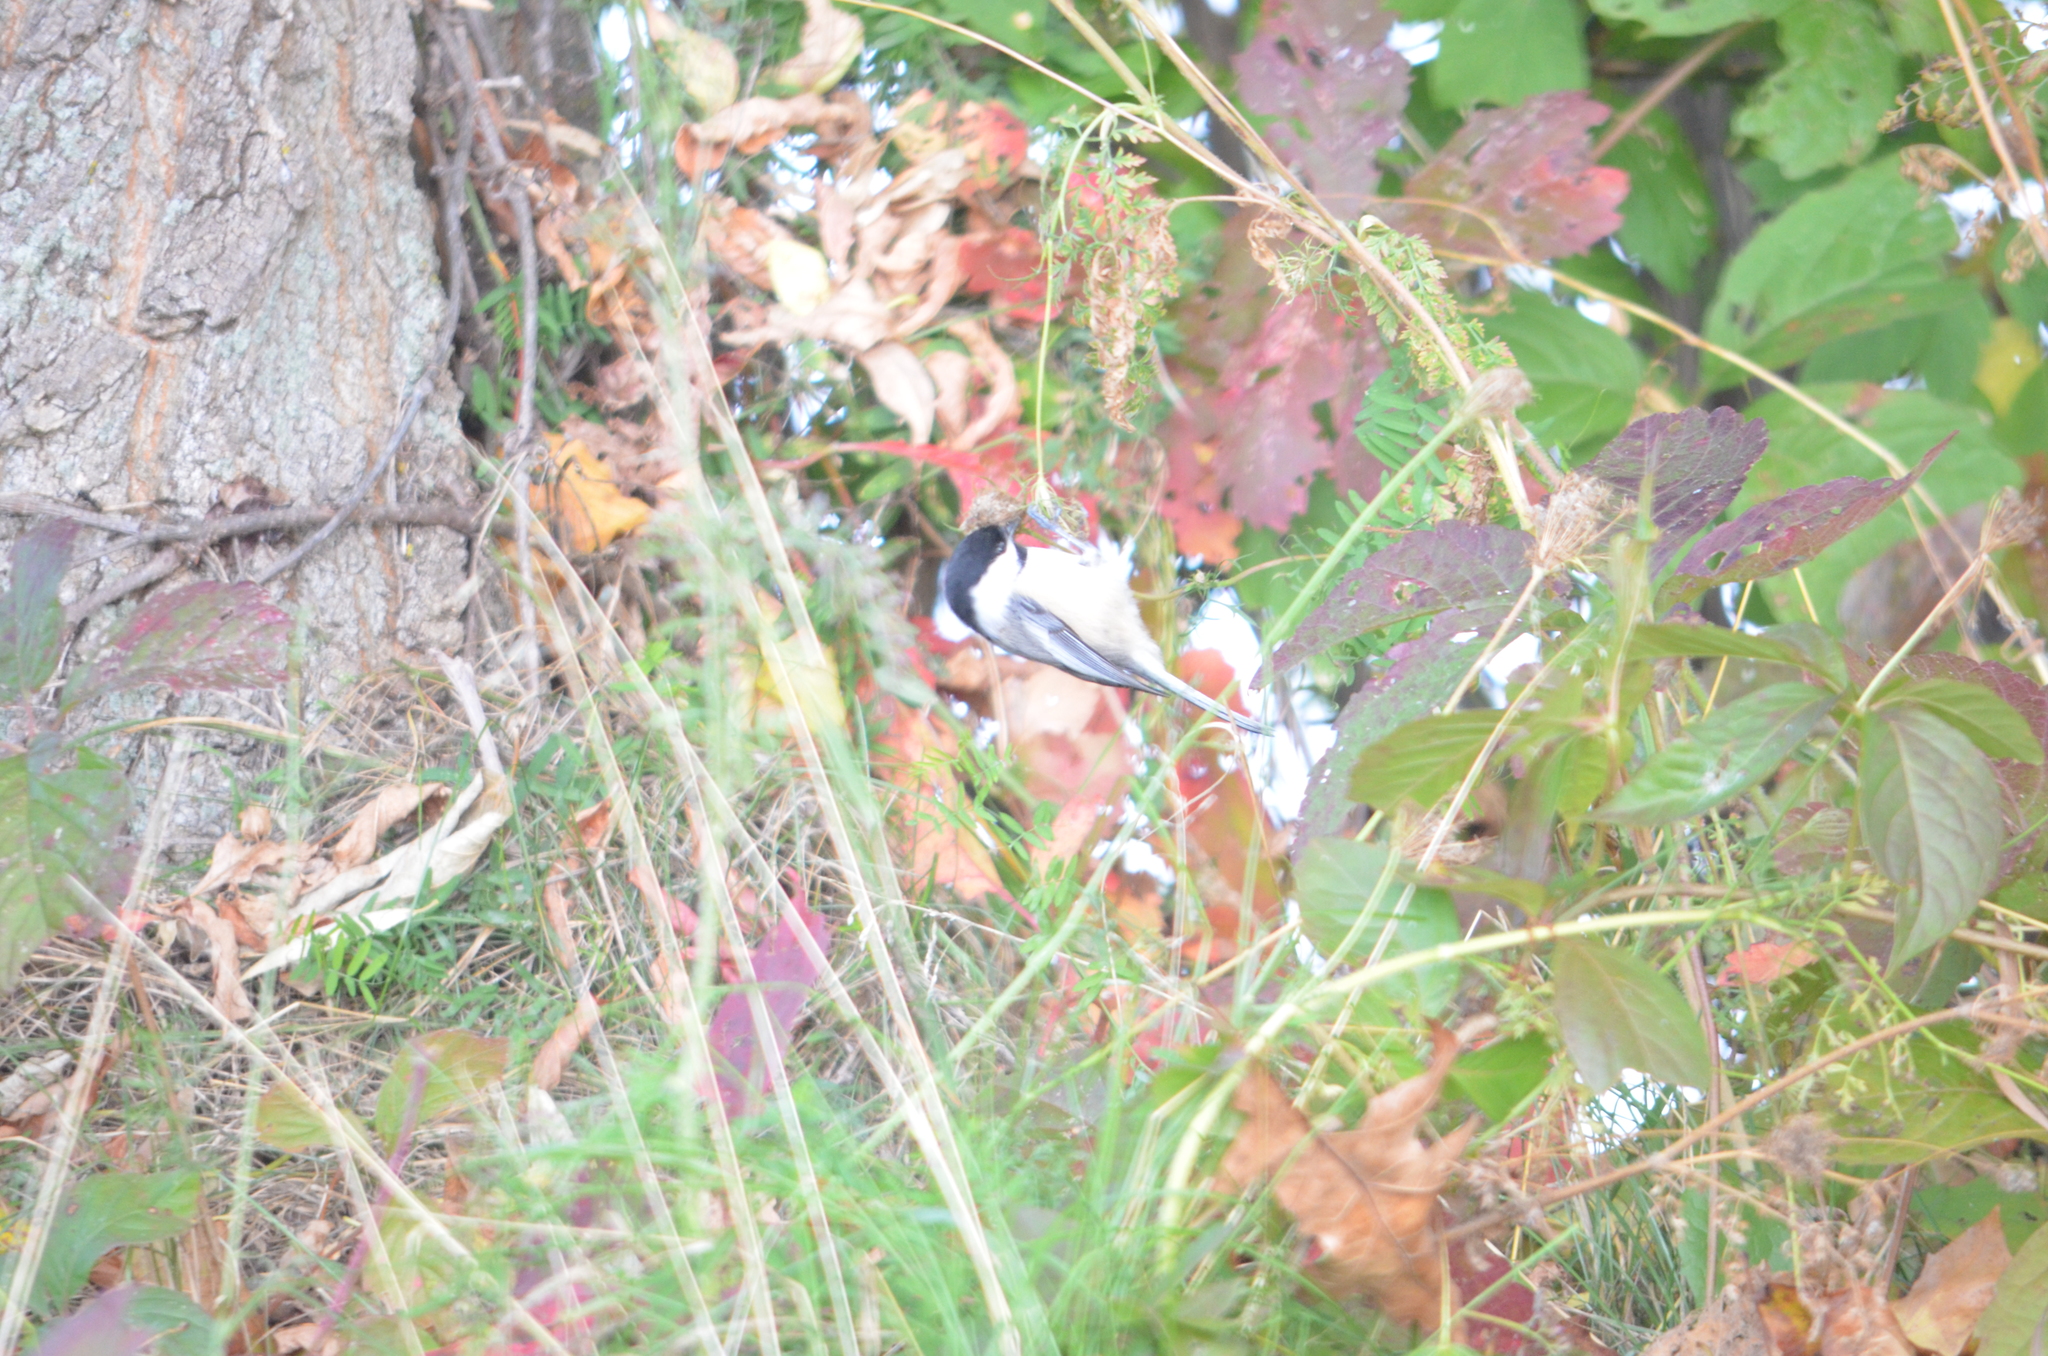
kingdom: Animalia
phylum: Chordata
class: Aves
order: Passeriformes
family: Paridae
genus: Poecile
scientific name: Poecile atricapillus
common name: Black-capped chickadee
